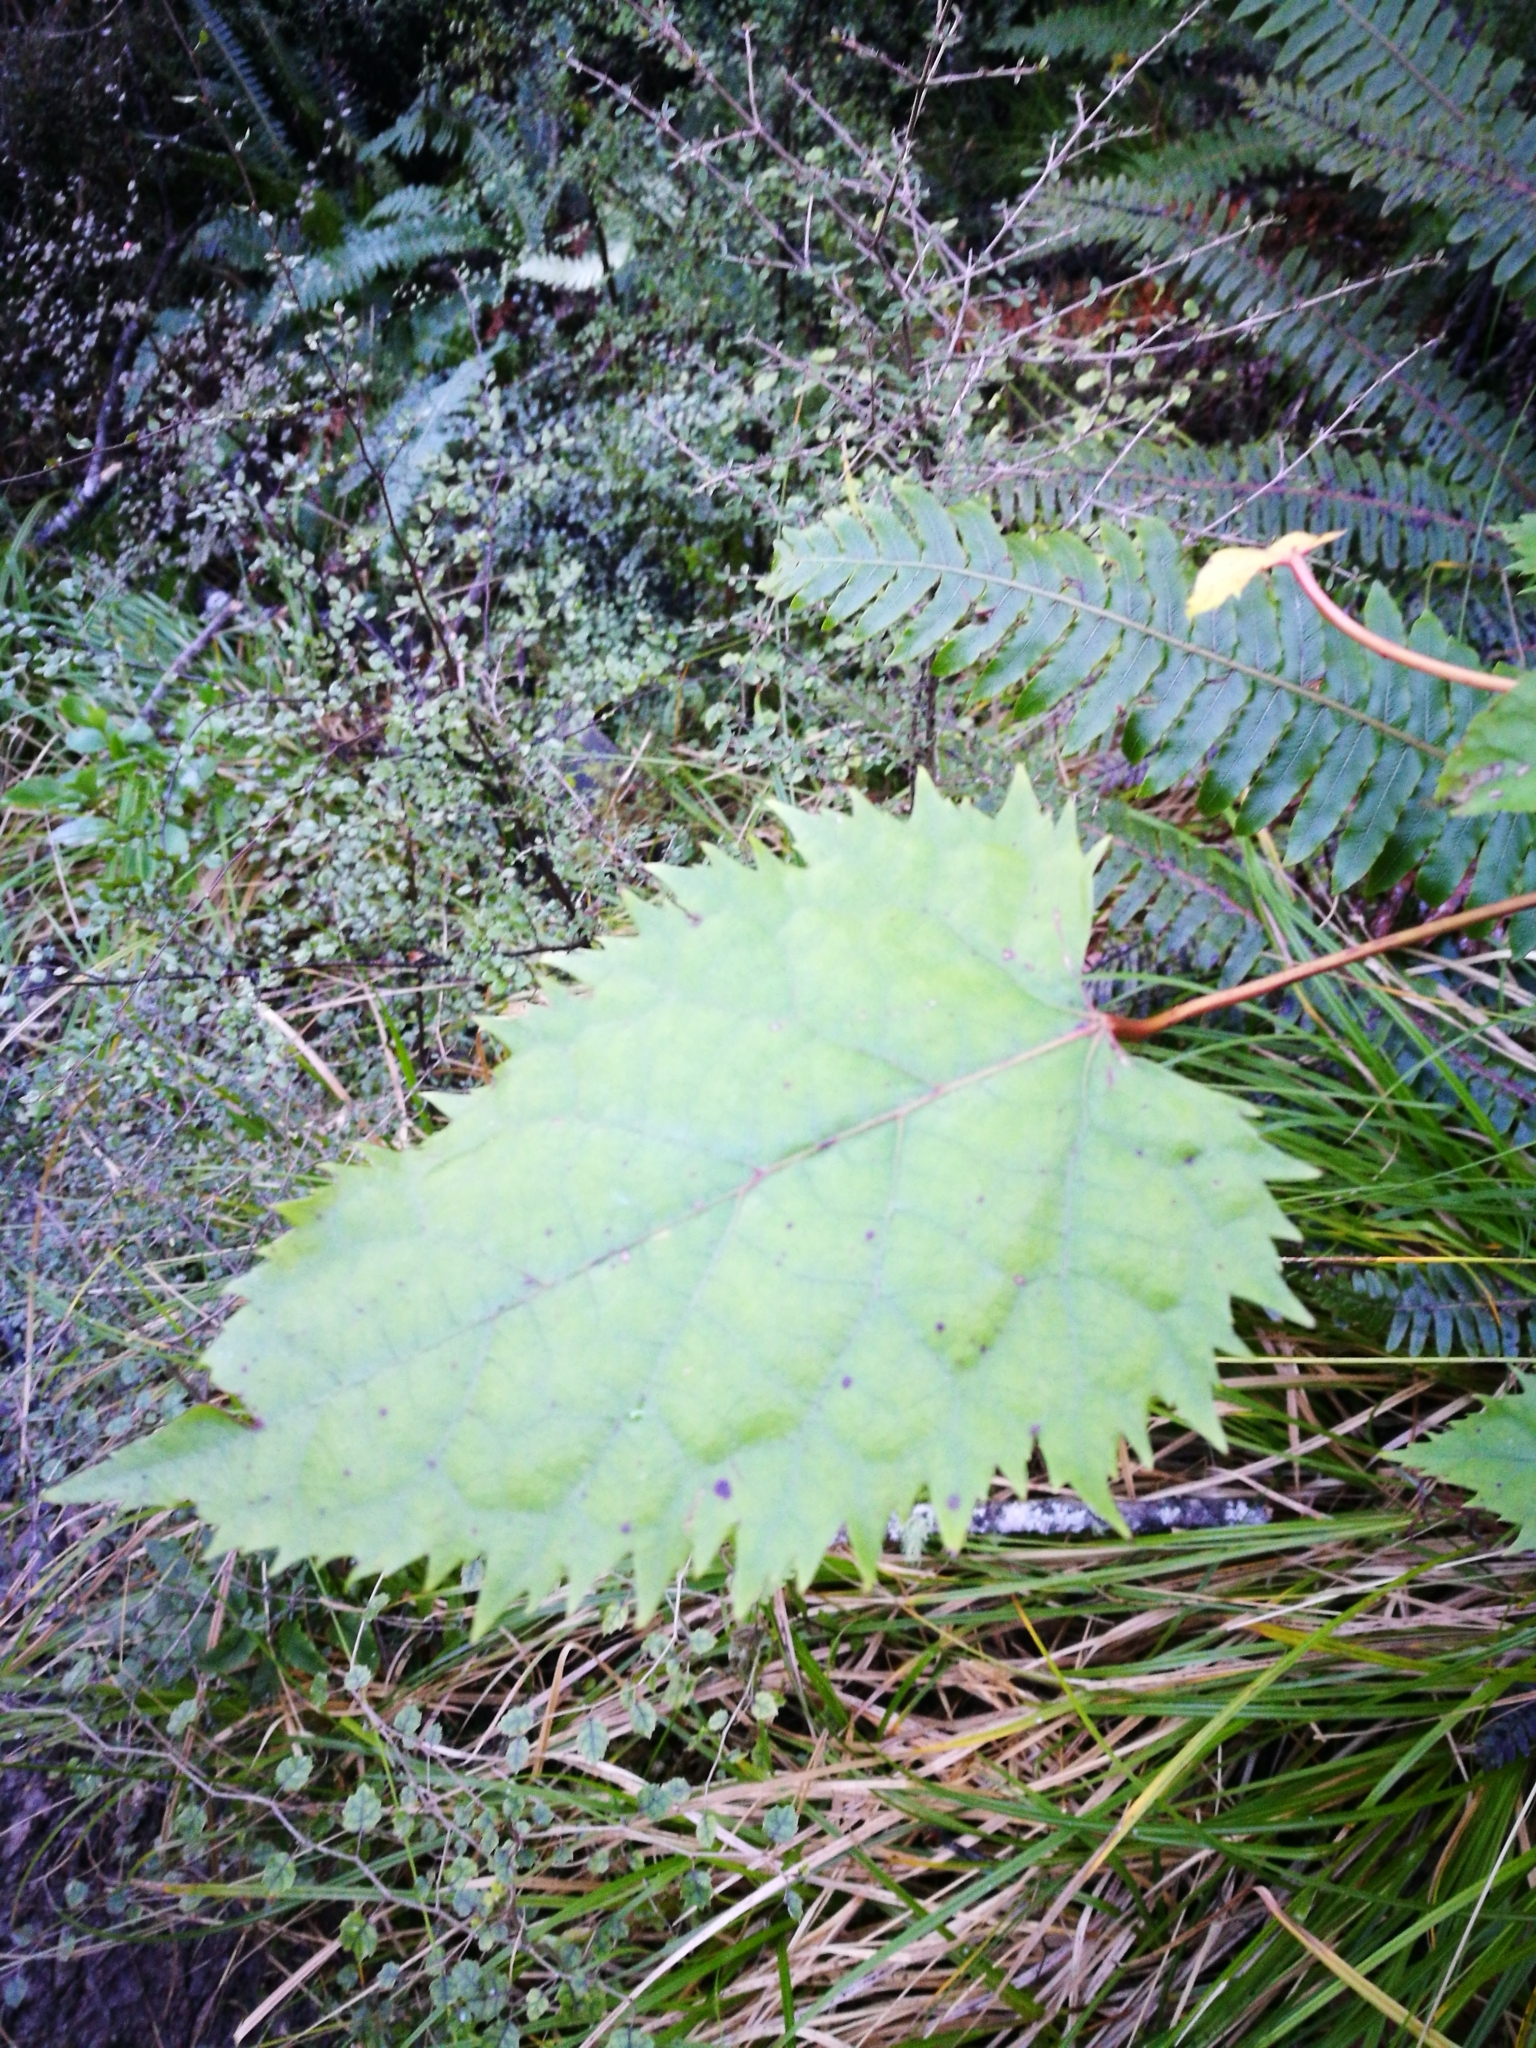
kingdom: Plantae
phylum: Tracheophyta
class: Magnoliopsida
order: Oxalidales
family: Elaeocarpaceae
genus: Aristotelia
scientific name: Aristotelia serrata
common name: New zealand wineberry
